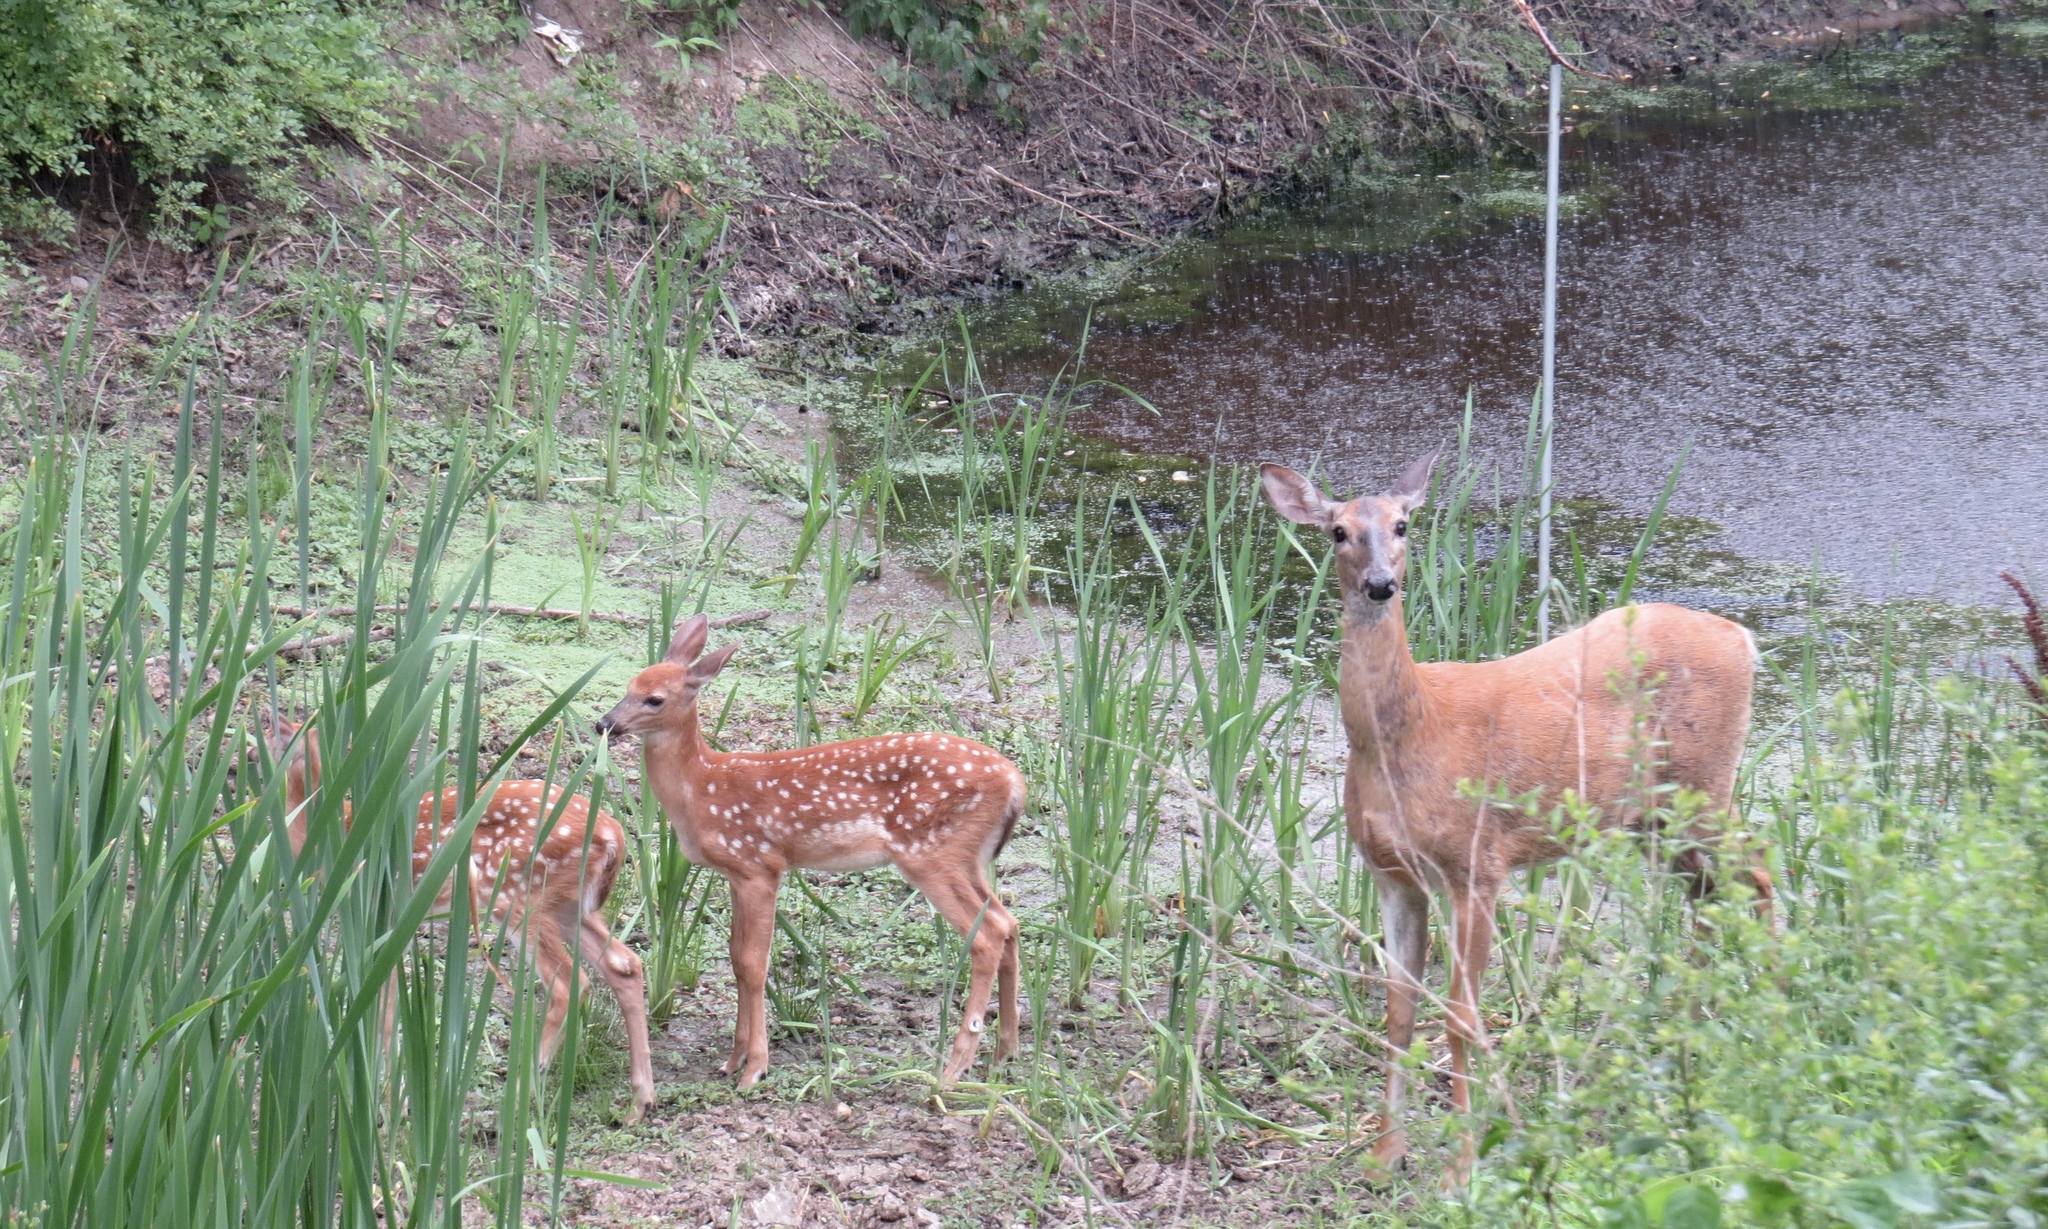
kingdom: Animalia
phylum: Chordata
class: Mammalia
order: Artiodactyla
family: Cervidae
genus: Odocoileus
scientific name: Odocoileus virginianus
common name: White-tailed deer
